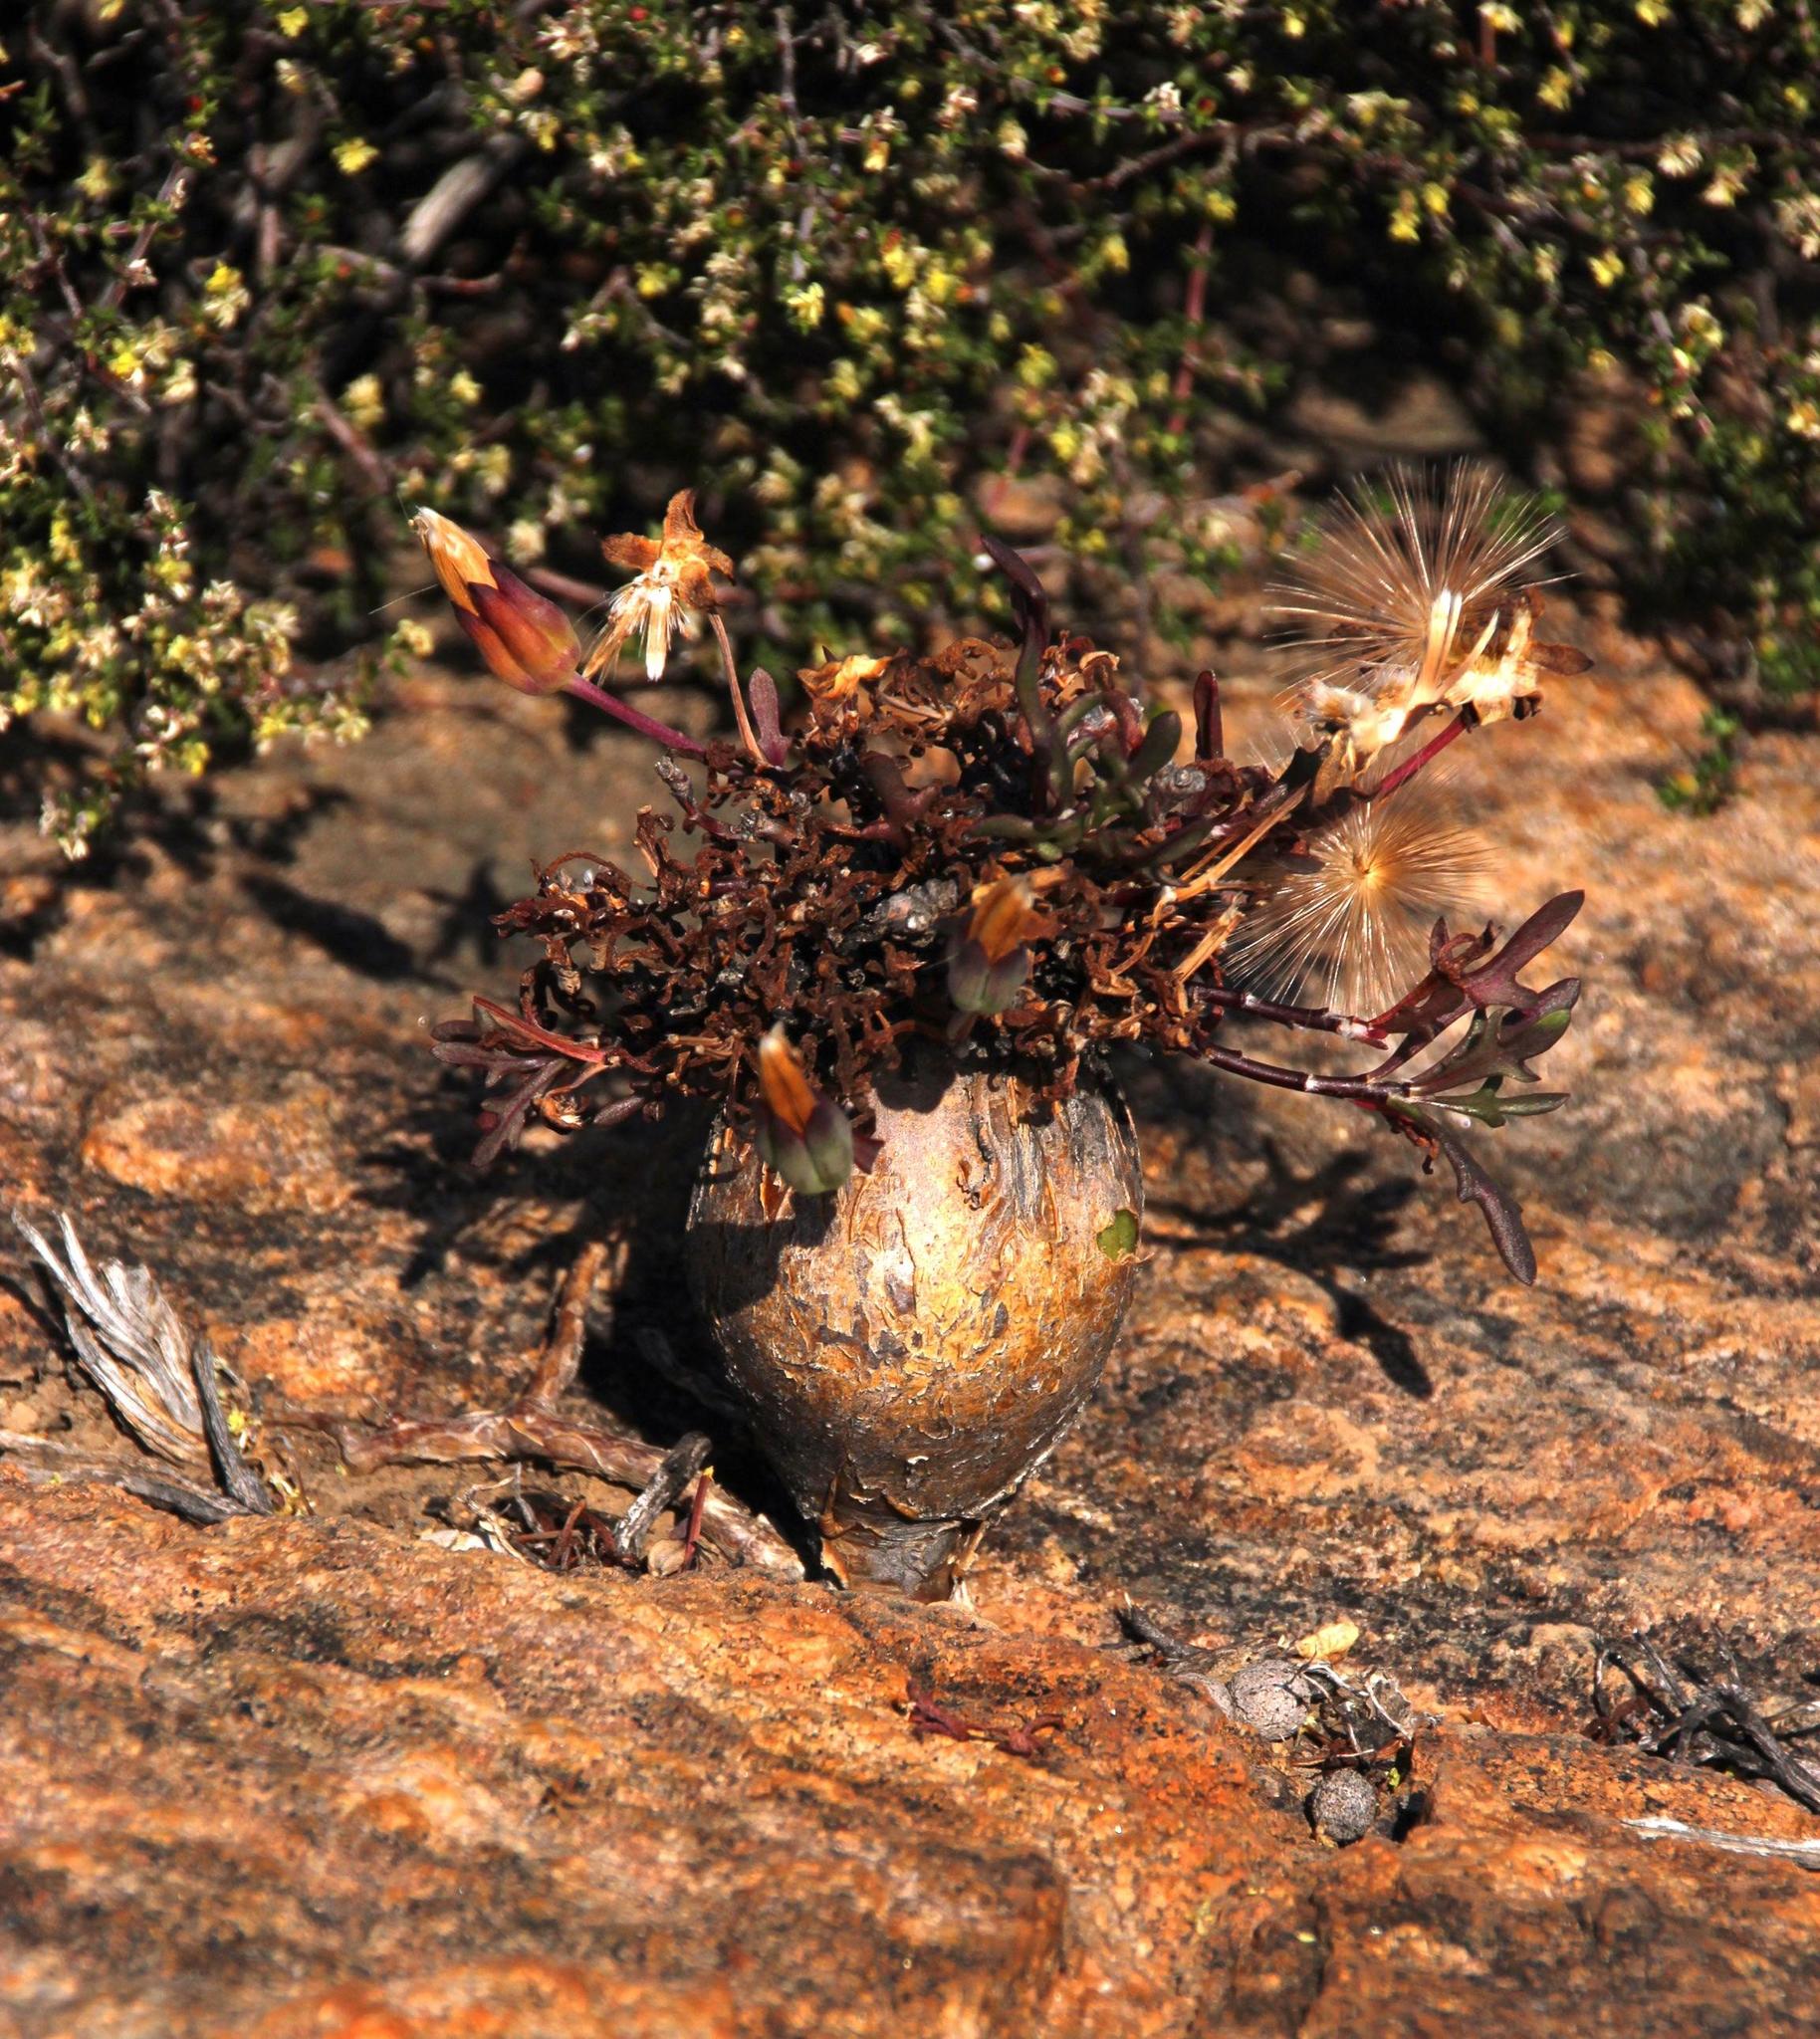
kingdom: Plantae
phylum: Tracheophyta
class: Magnoliopsida
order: Asterales
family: Asteraceae
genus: Othonna
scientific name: Othonna retrofracta
